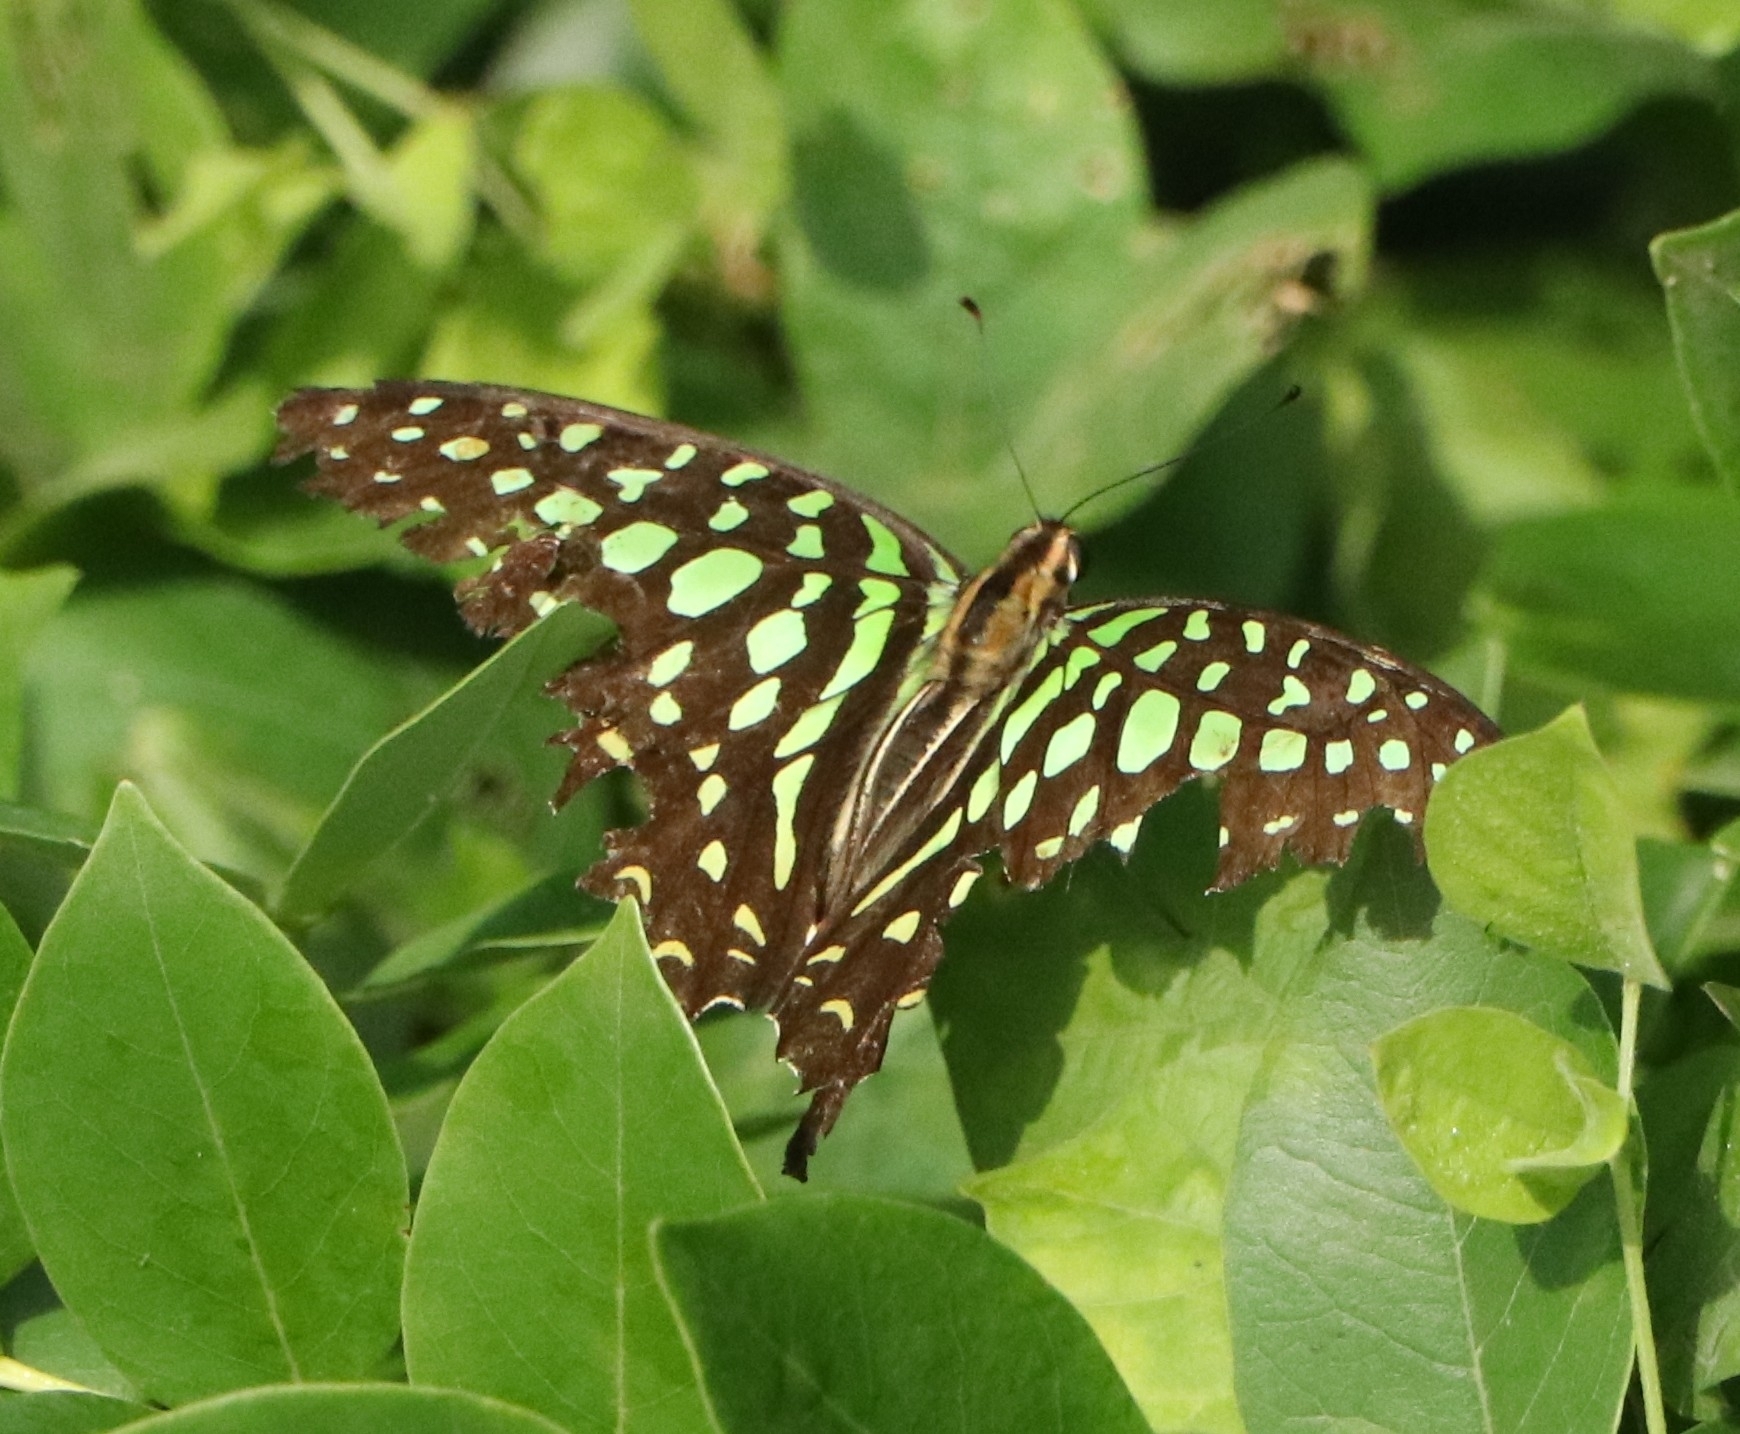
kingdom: Animalia
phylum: Arthropoda
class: Insecta
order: Lepidoptera
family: Papilionidae
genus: Graphium
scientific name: Graphium agamemnon
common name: Tailed jay
